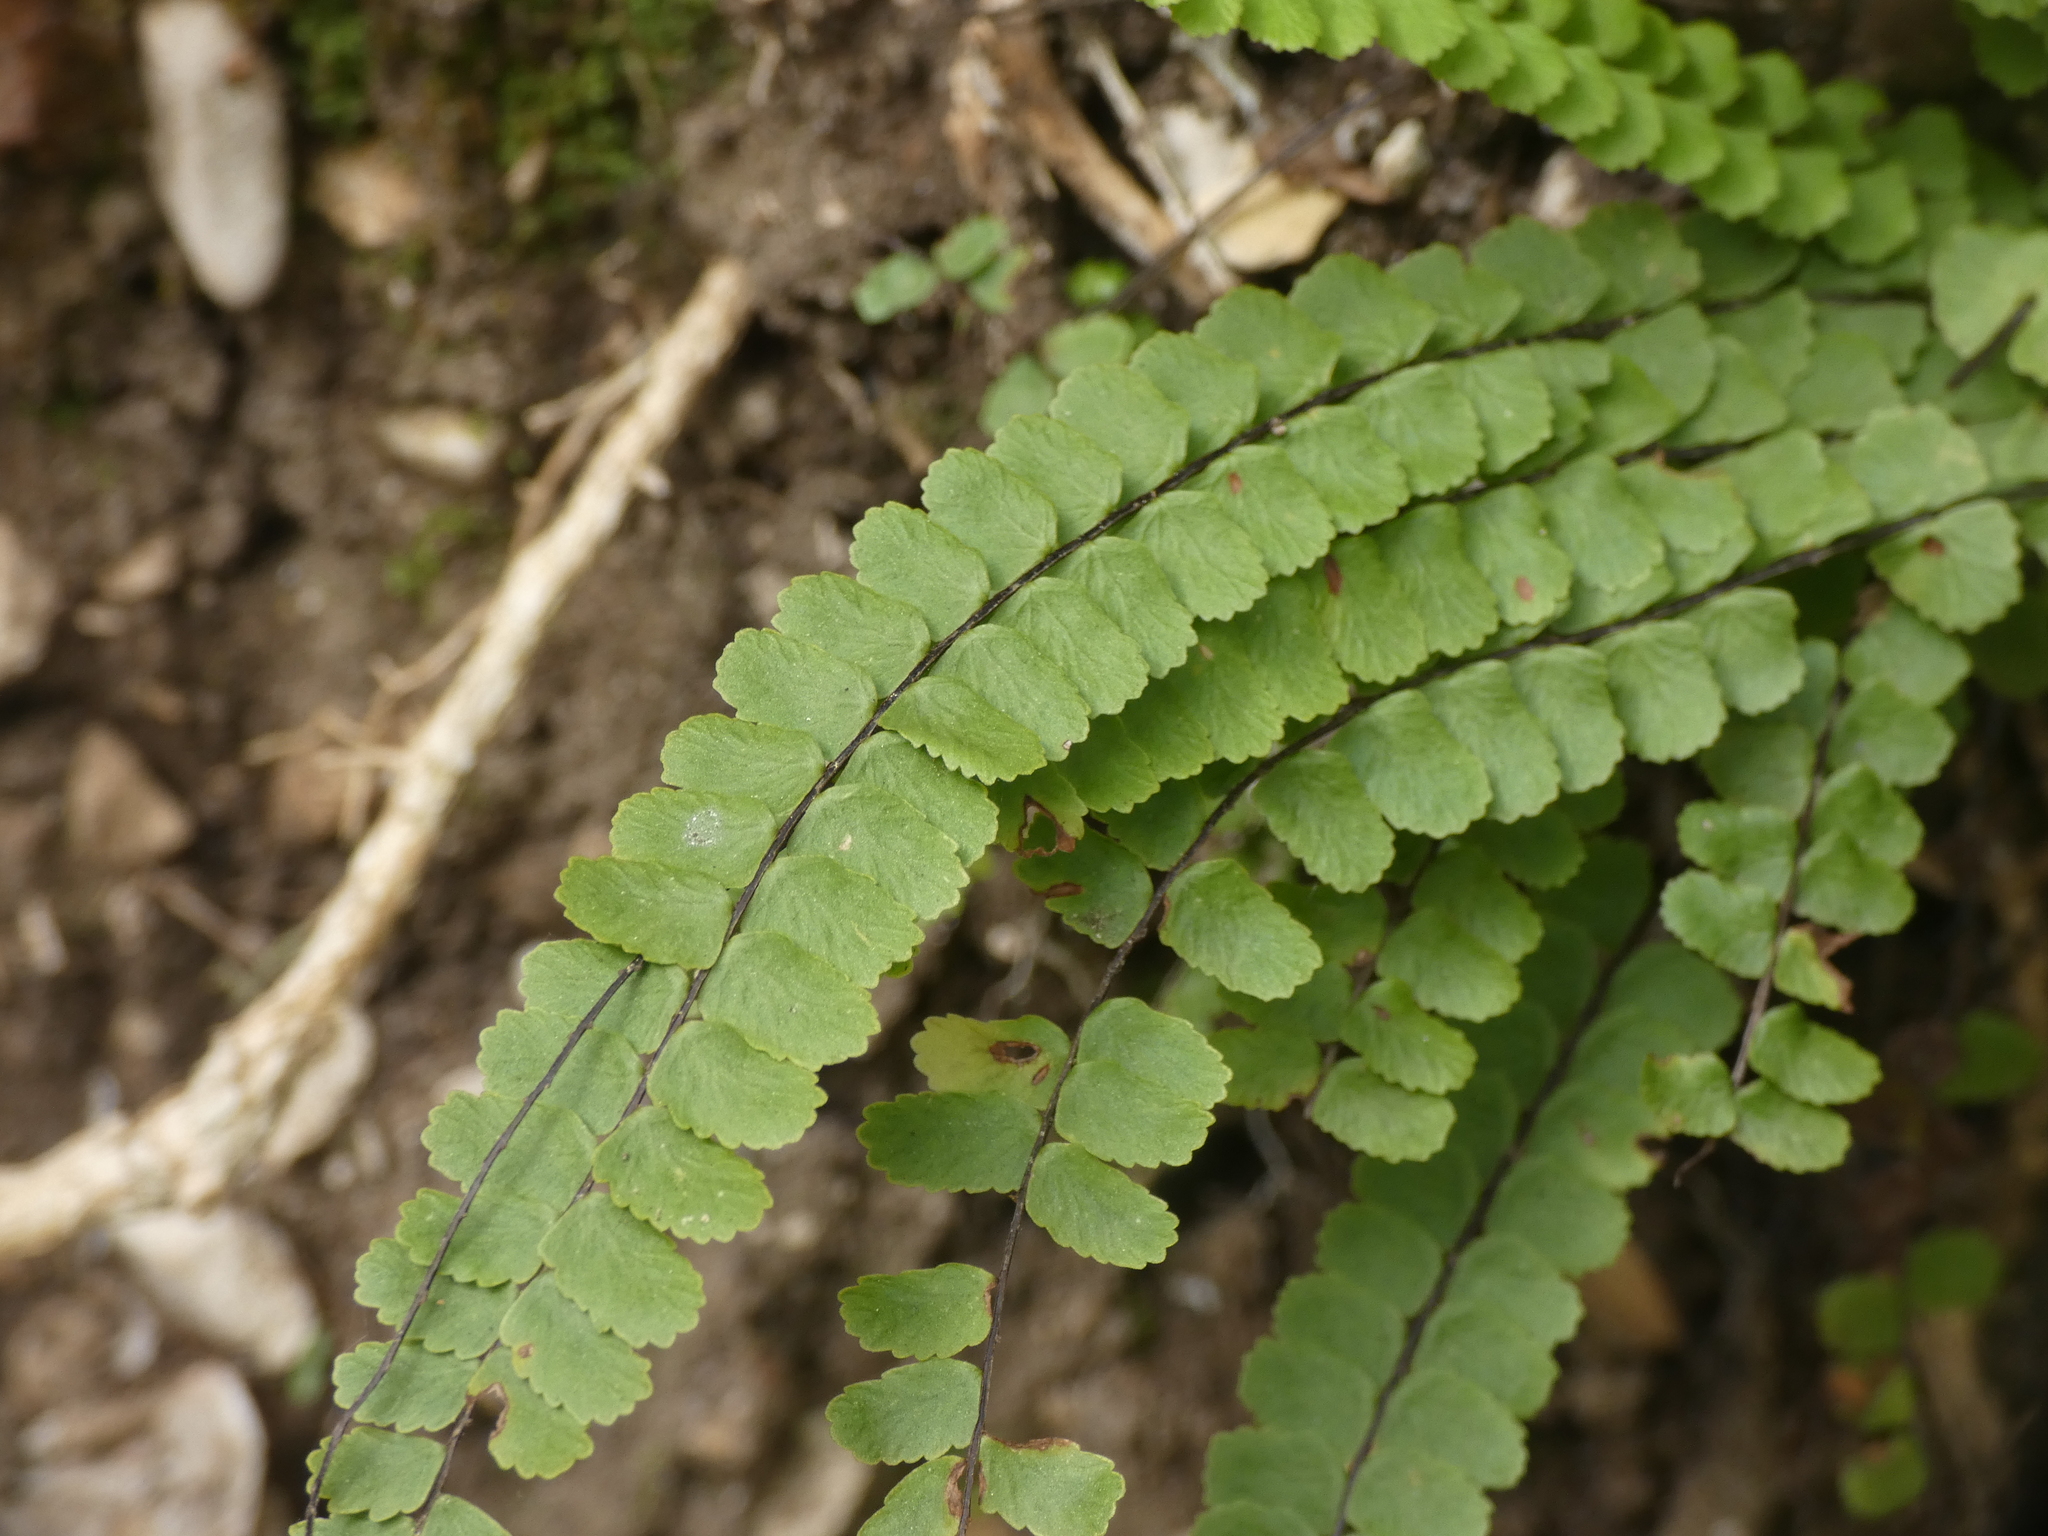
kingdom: Plantae
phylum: Tracheophyta
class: Polypodiopsida
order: Polypodiales
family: Aspleniaceae
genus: Asplenium
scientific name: Asplenium trichomanes
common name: Maidenhair spleenwort
